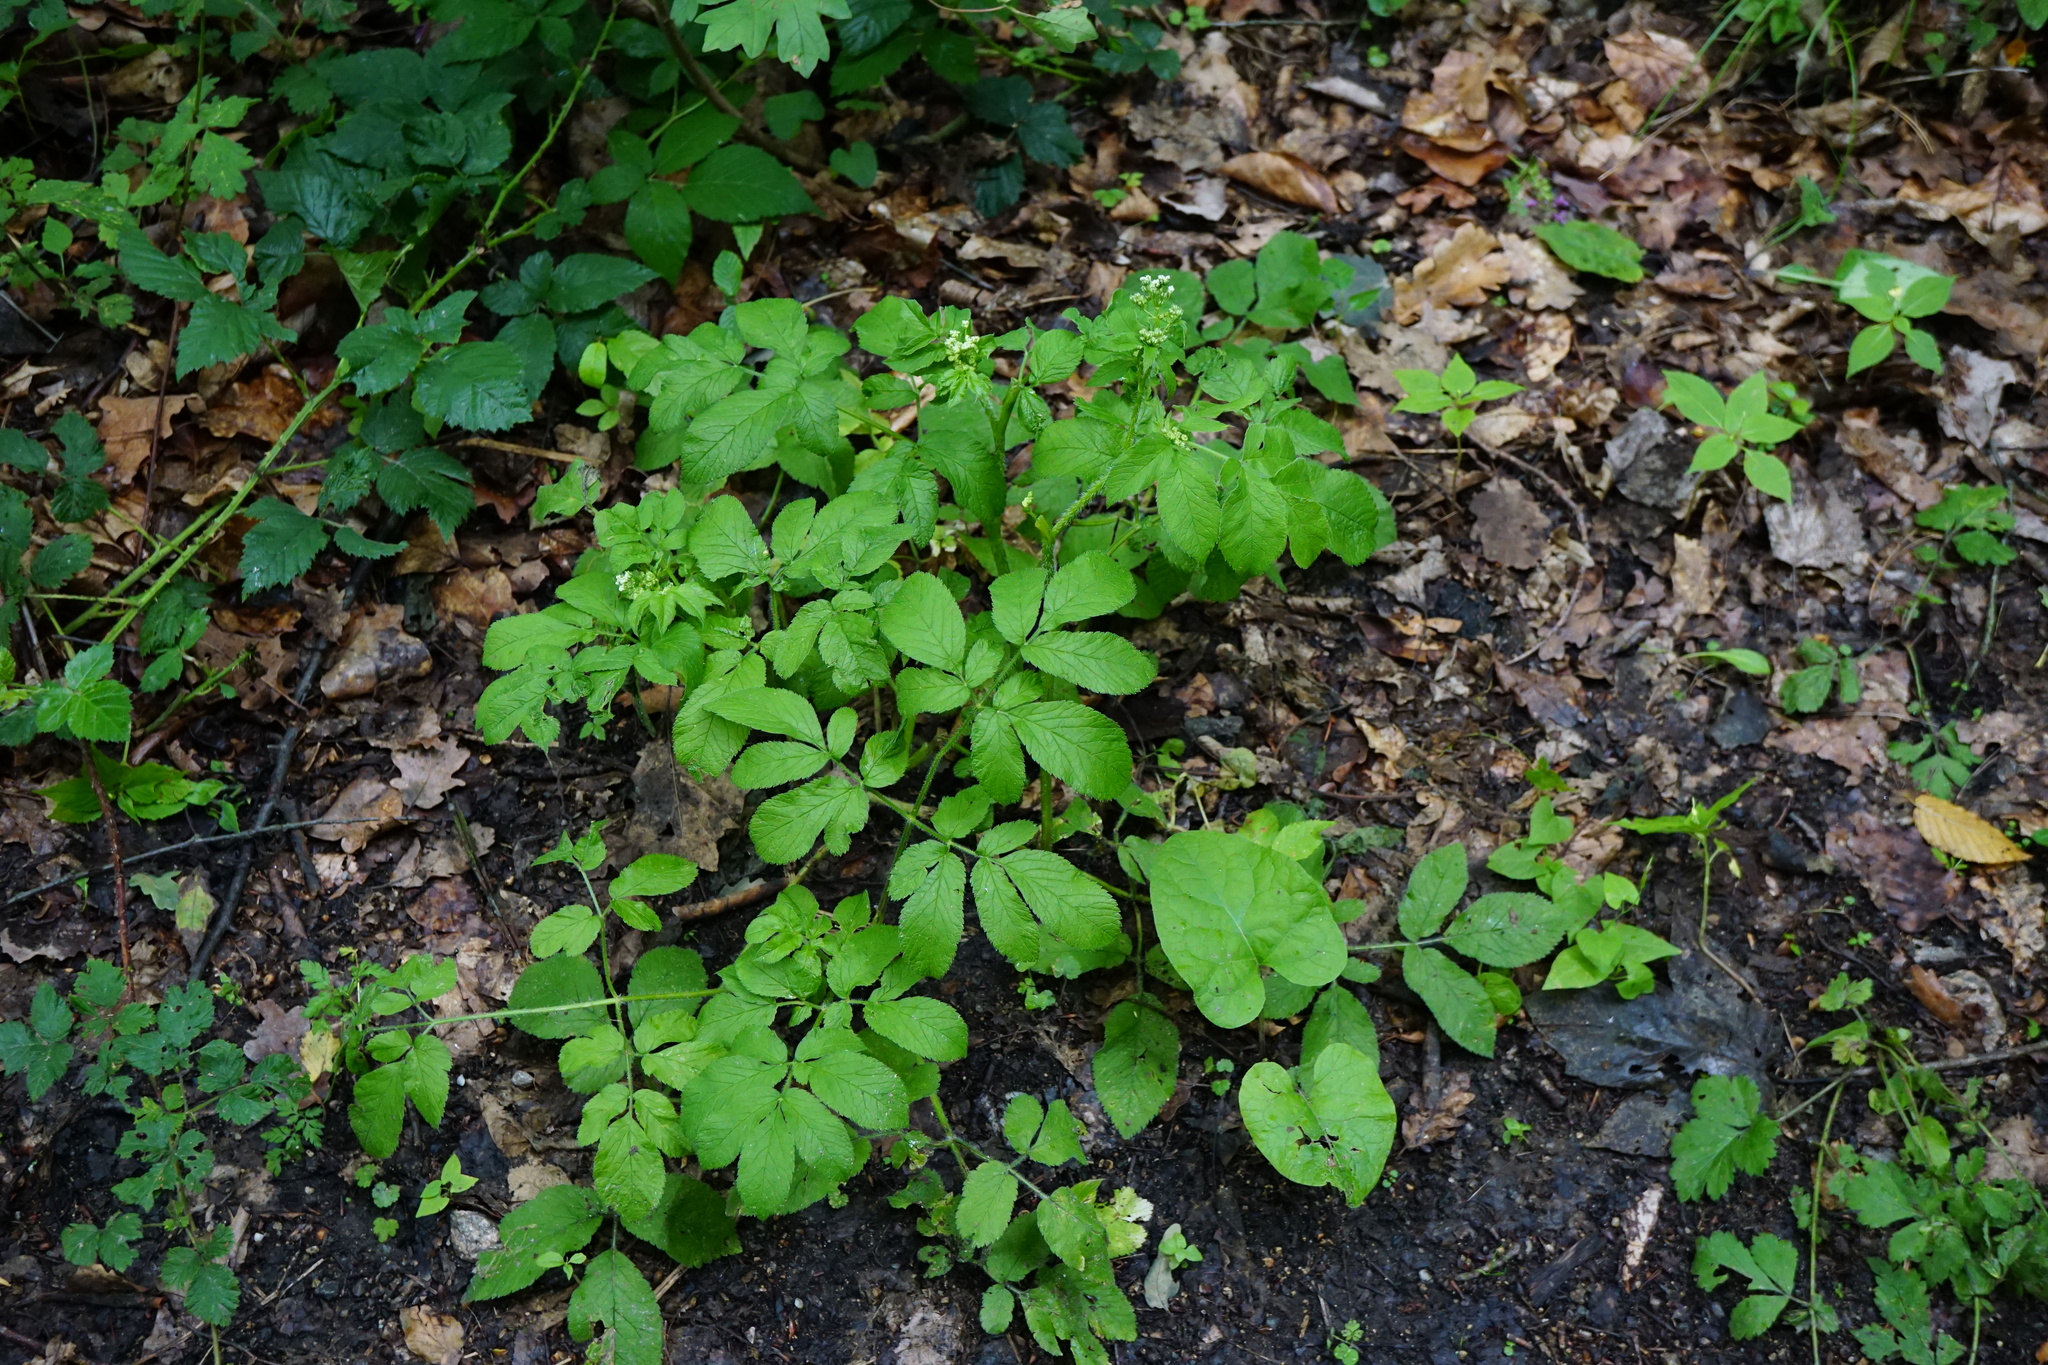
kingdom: Plantae
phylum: Tracheophyta
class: Magnoliopsida
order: Apiales
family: Apiaceae
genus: Chaerophyllum
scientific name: Chaerophyllum aromaticum
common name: Broadleaf chervil
